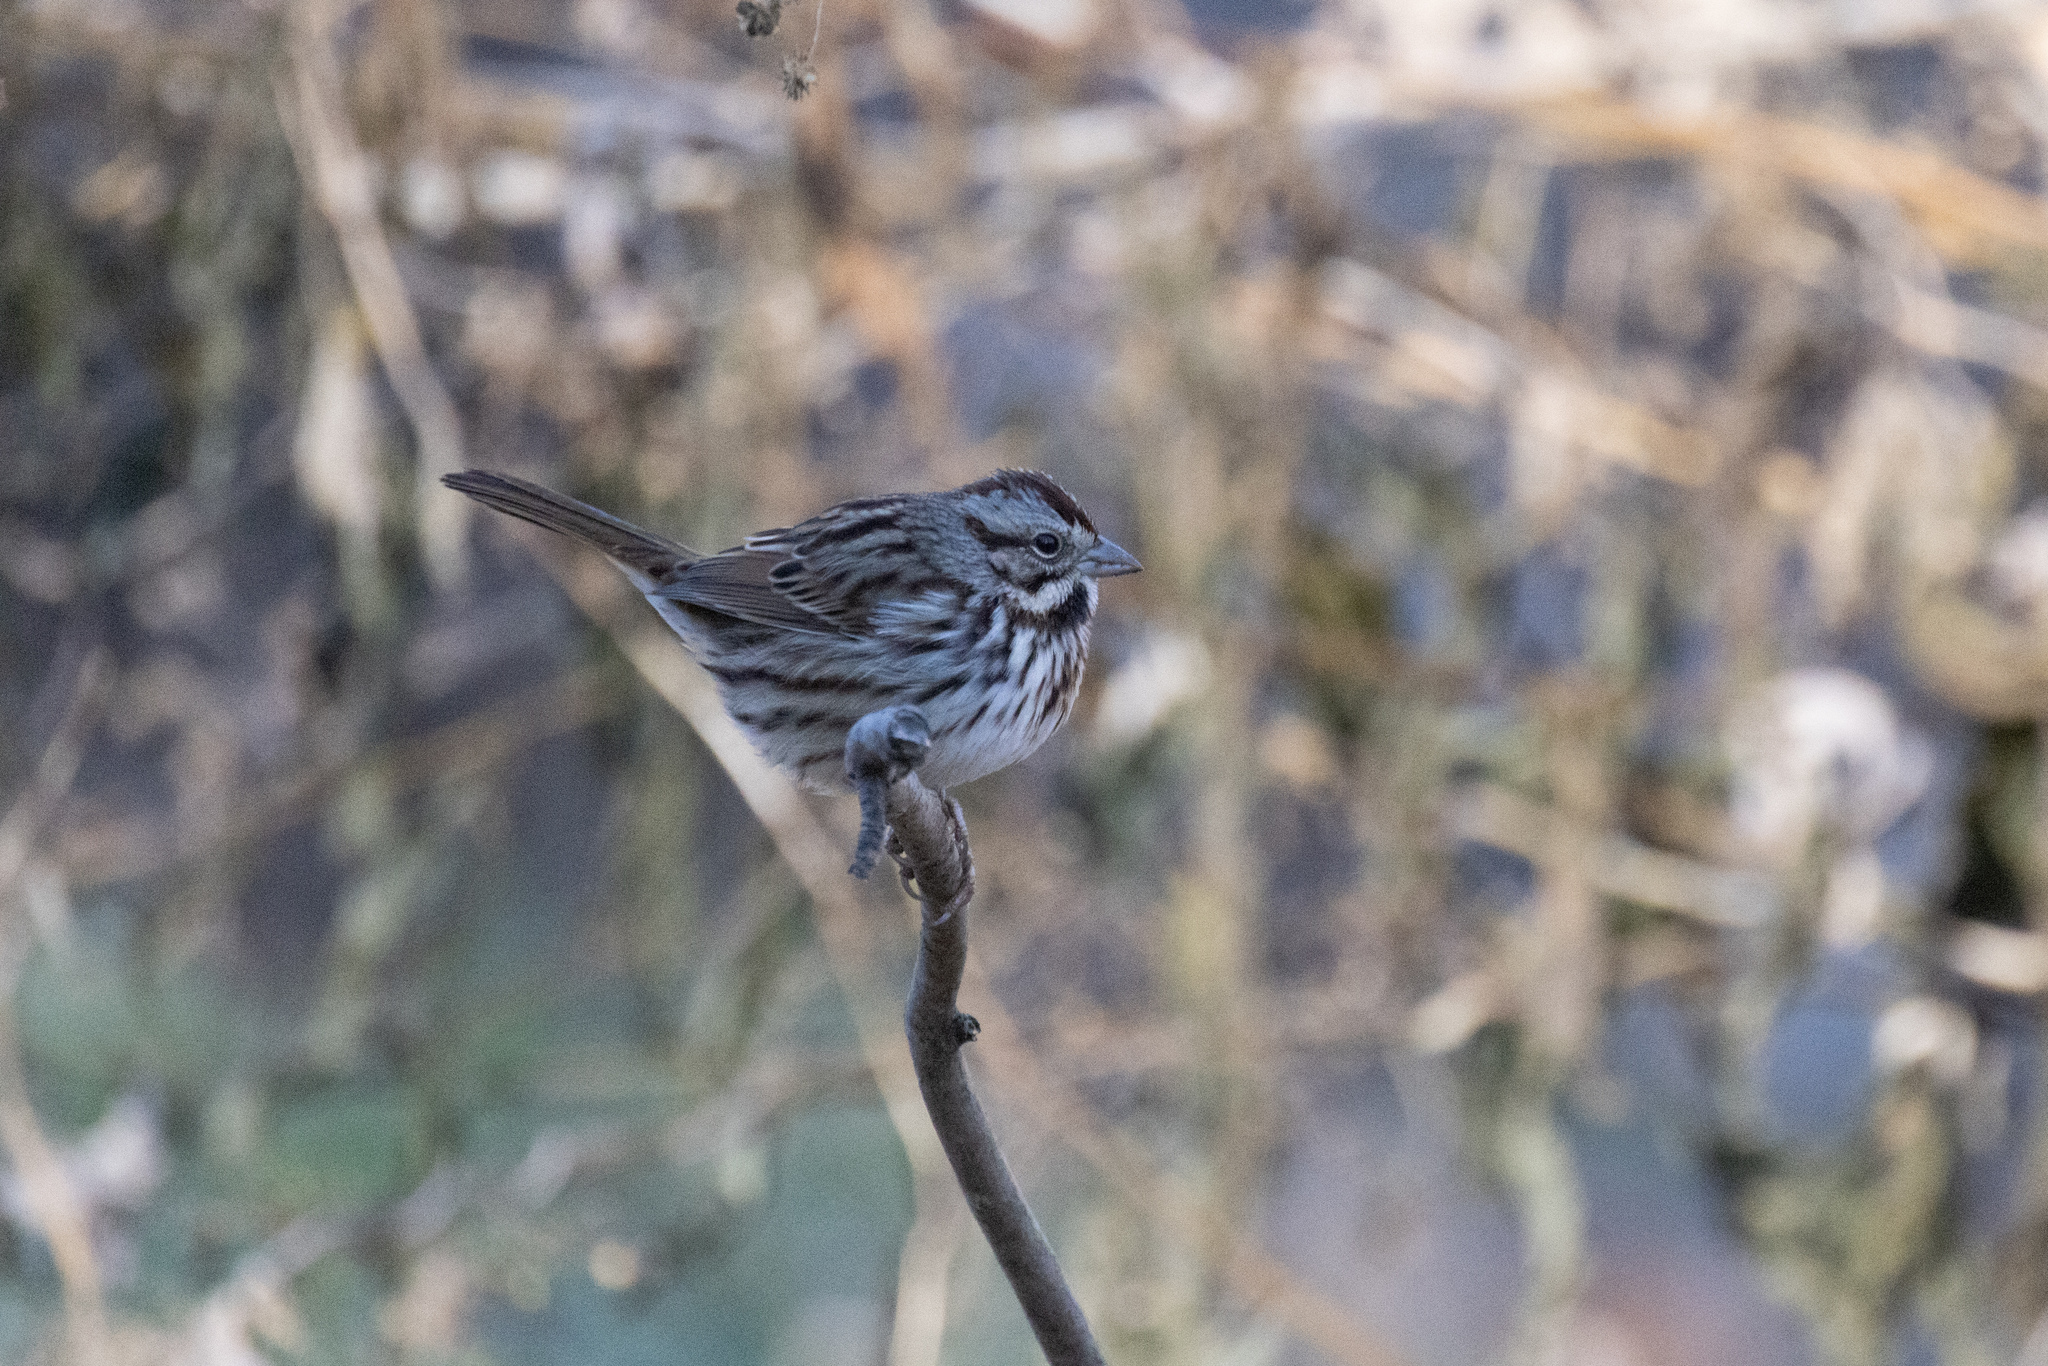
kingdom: Animalia
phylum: Chordata
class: Aves
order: Passeriformes
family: Passerellidae
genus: Melospiza
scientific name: Melospiza melodia
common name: Song sparrow
